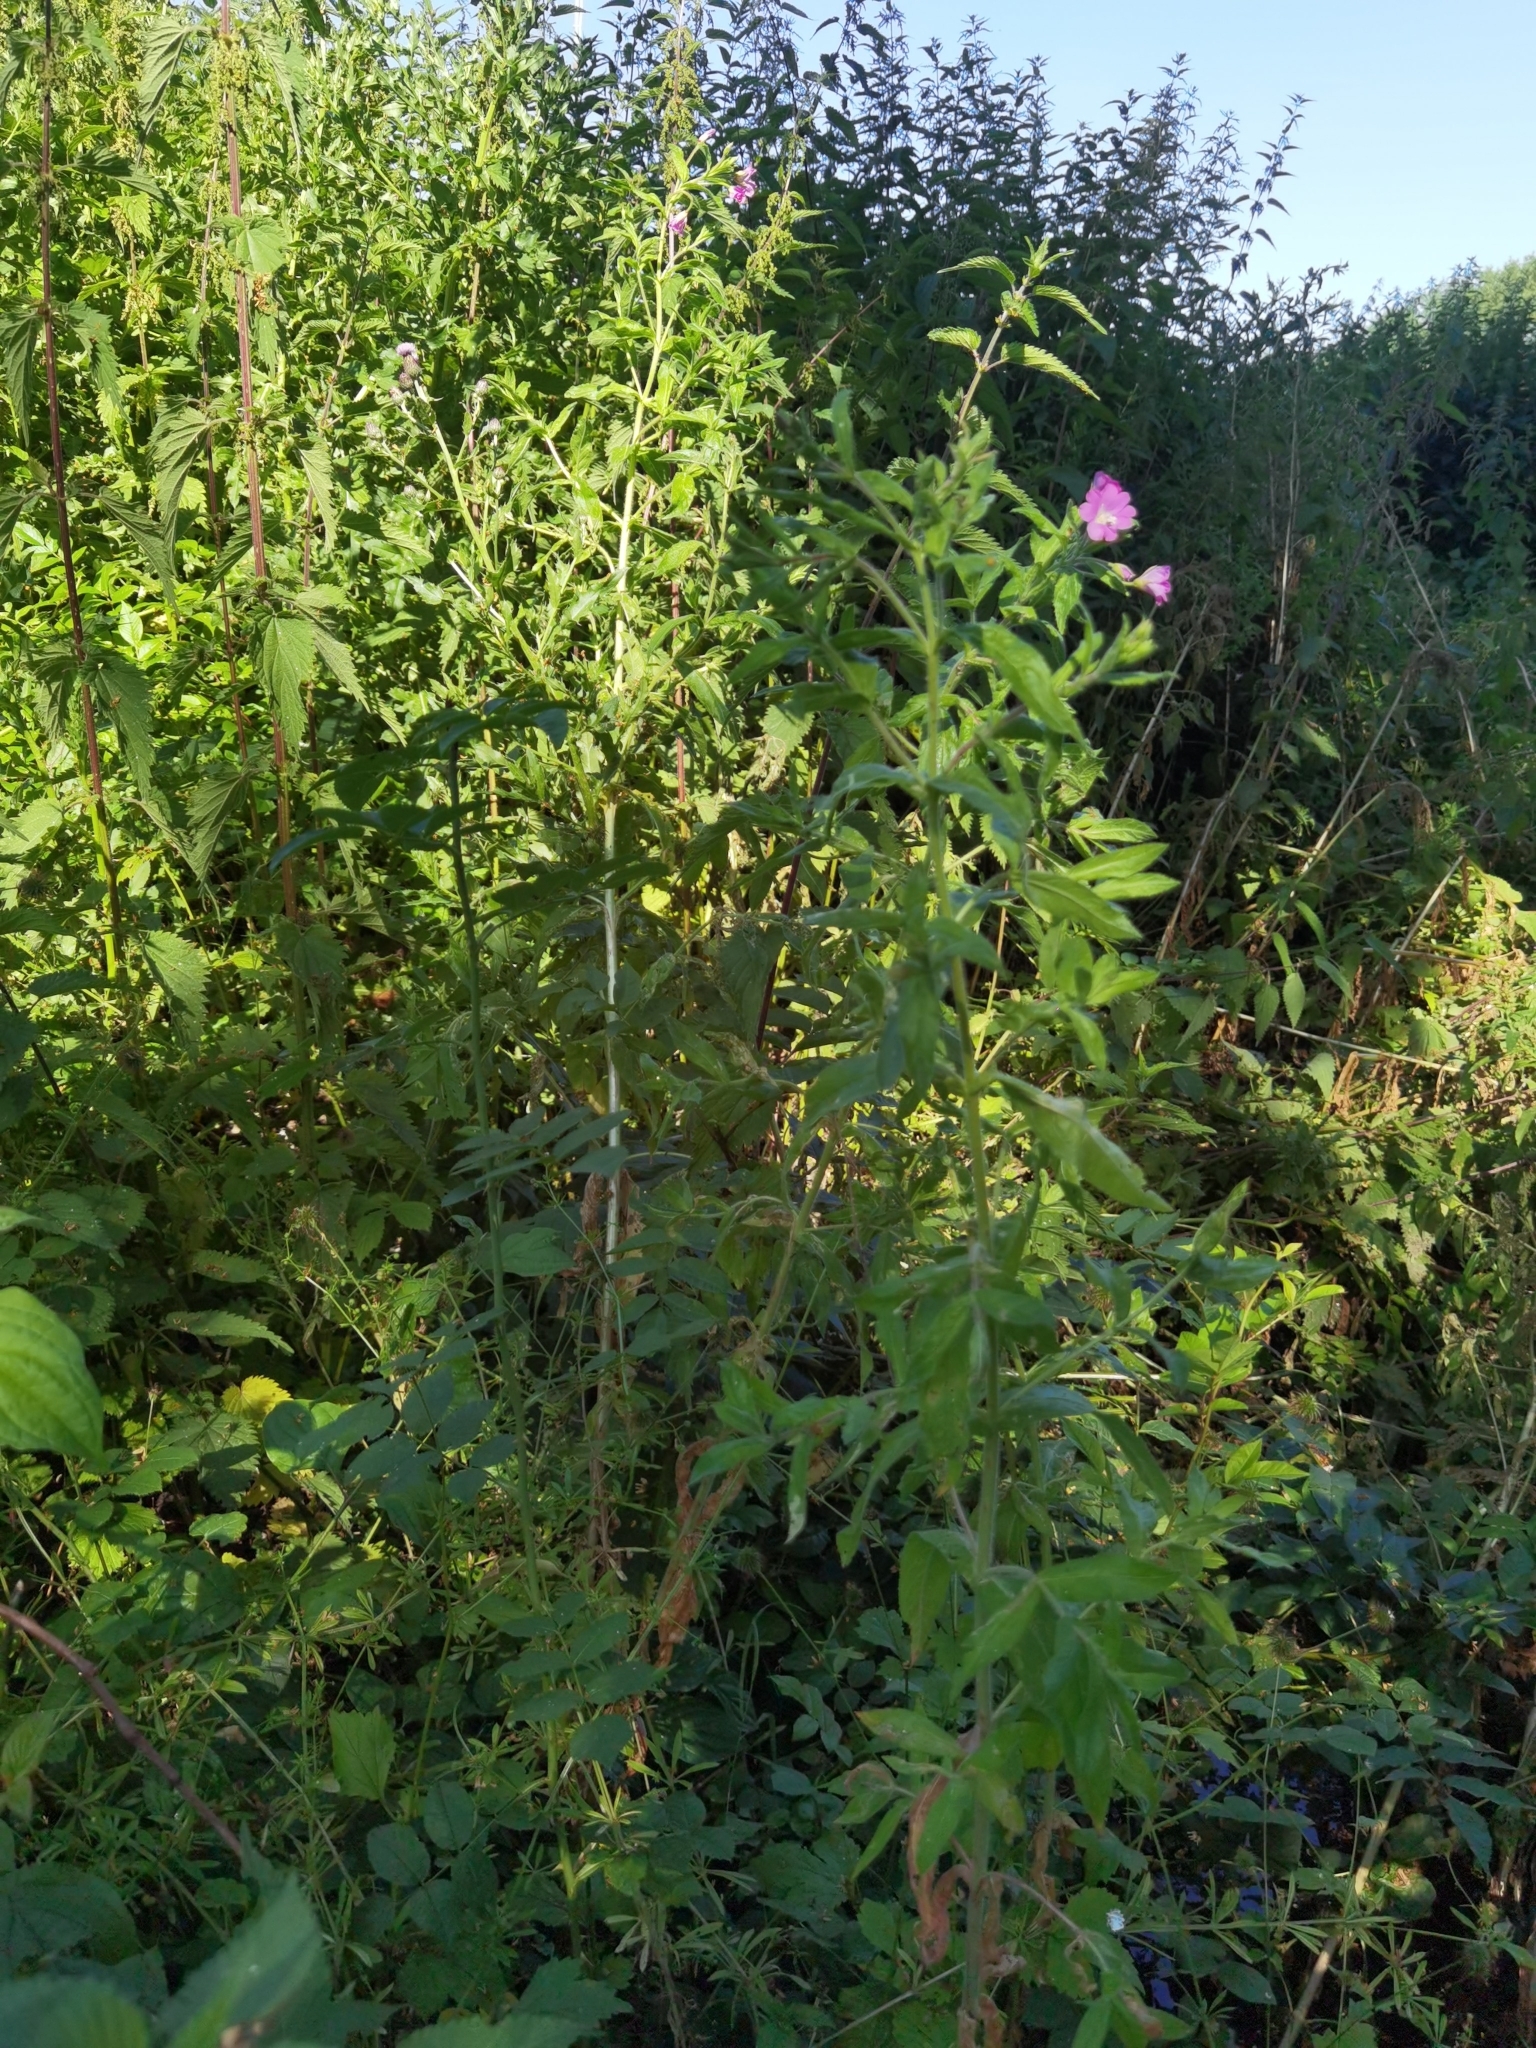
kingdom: Plantae
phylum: Tracheophyta
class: Magnoliopsida
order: Myrtales
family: Onagraceae
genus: Epilobium
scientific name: Epilobium hirsutum
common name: Great willowherb
